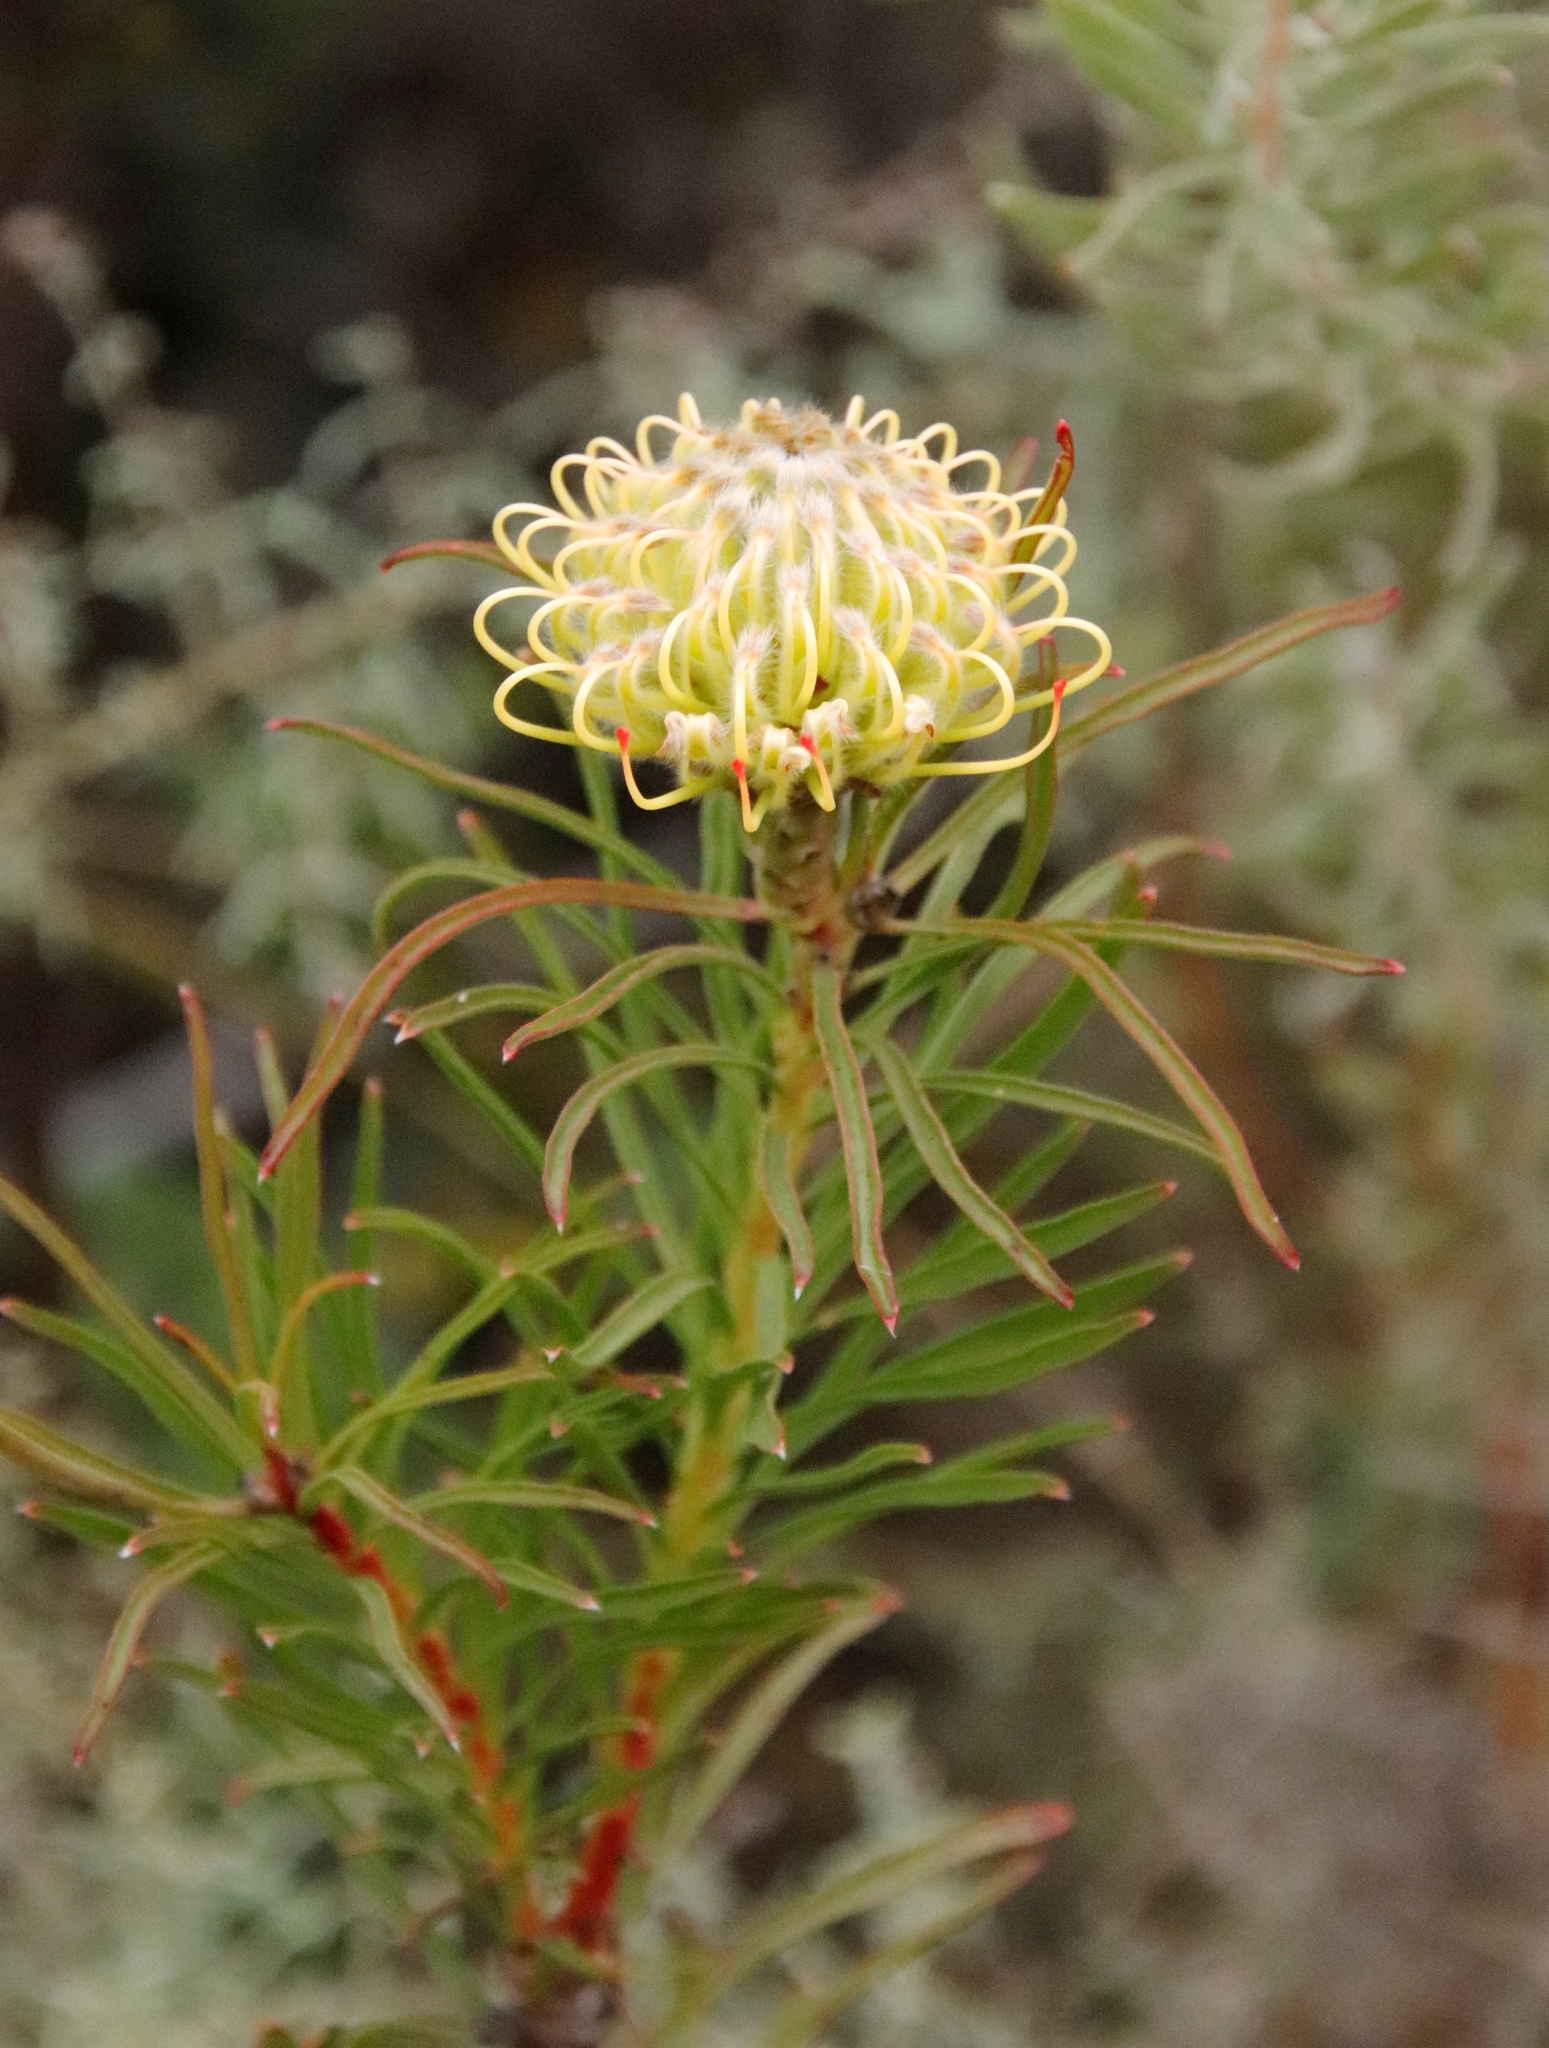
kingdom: Plantae
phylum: Tracheophyta
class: Magnoliopsida
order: Proteales
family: Proteaceae
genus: Leucospermum
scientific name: Leucospermum lineare
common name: Needle-leaf pincushion
